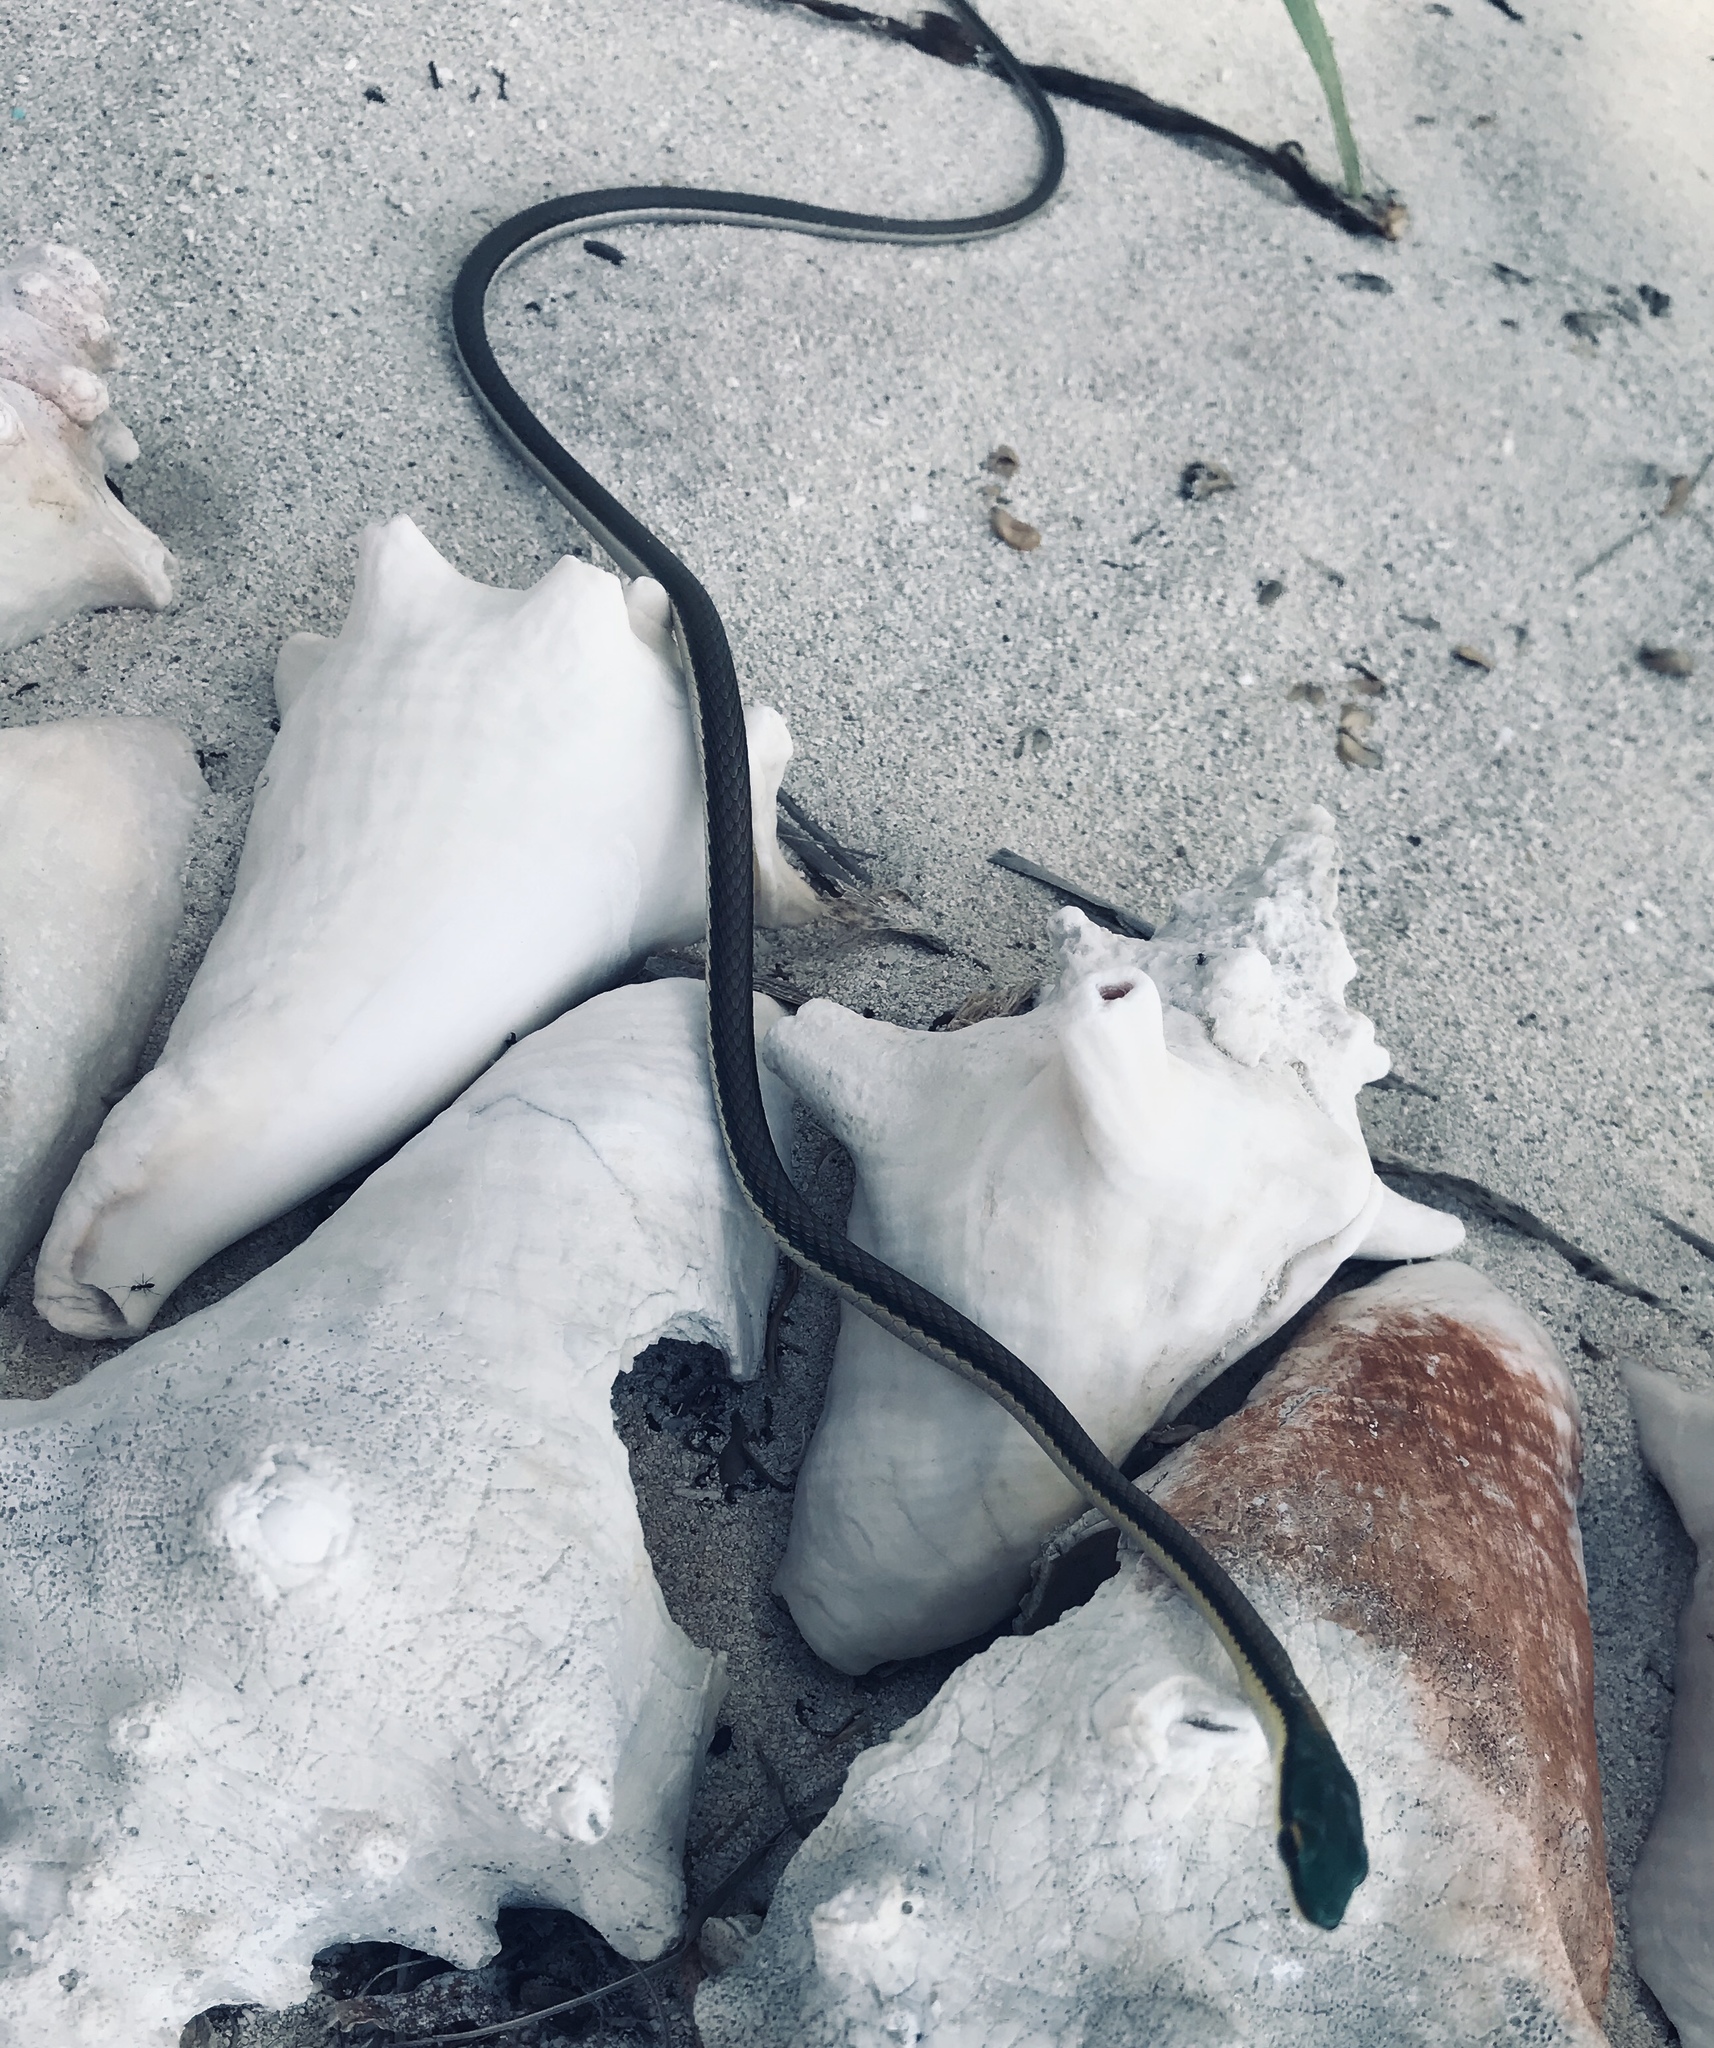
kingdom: Animalia
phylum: Chordata
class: Squamata
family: Colubridae
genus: Leptophis
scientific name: Leptophis mexicanus
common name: Mexican parrot snake
